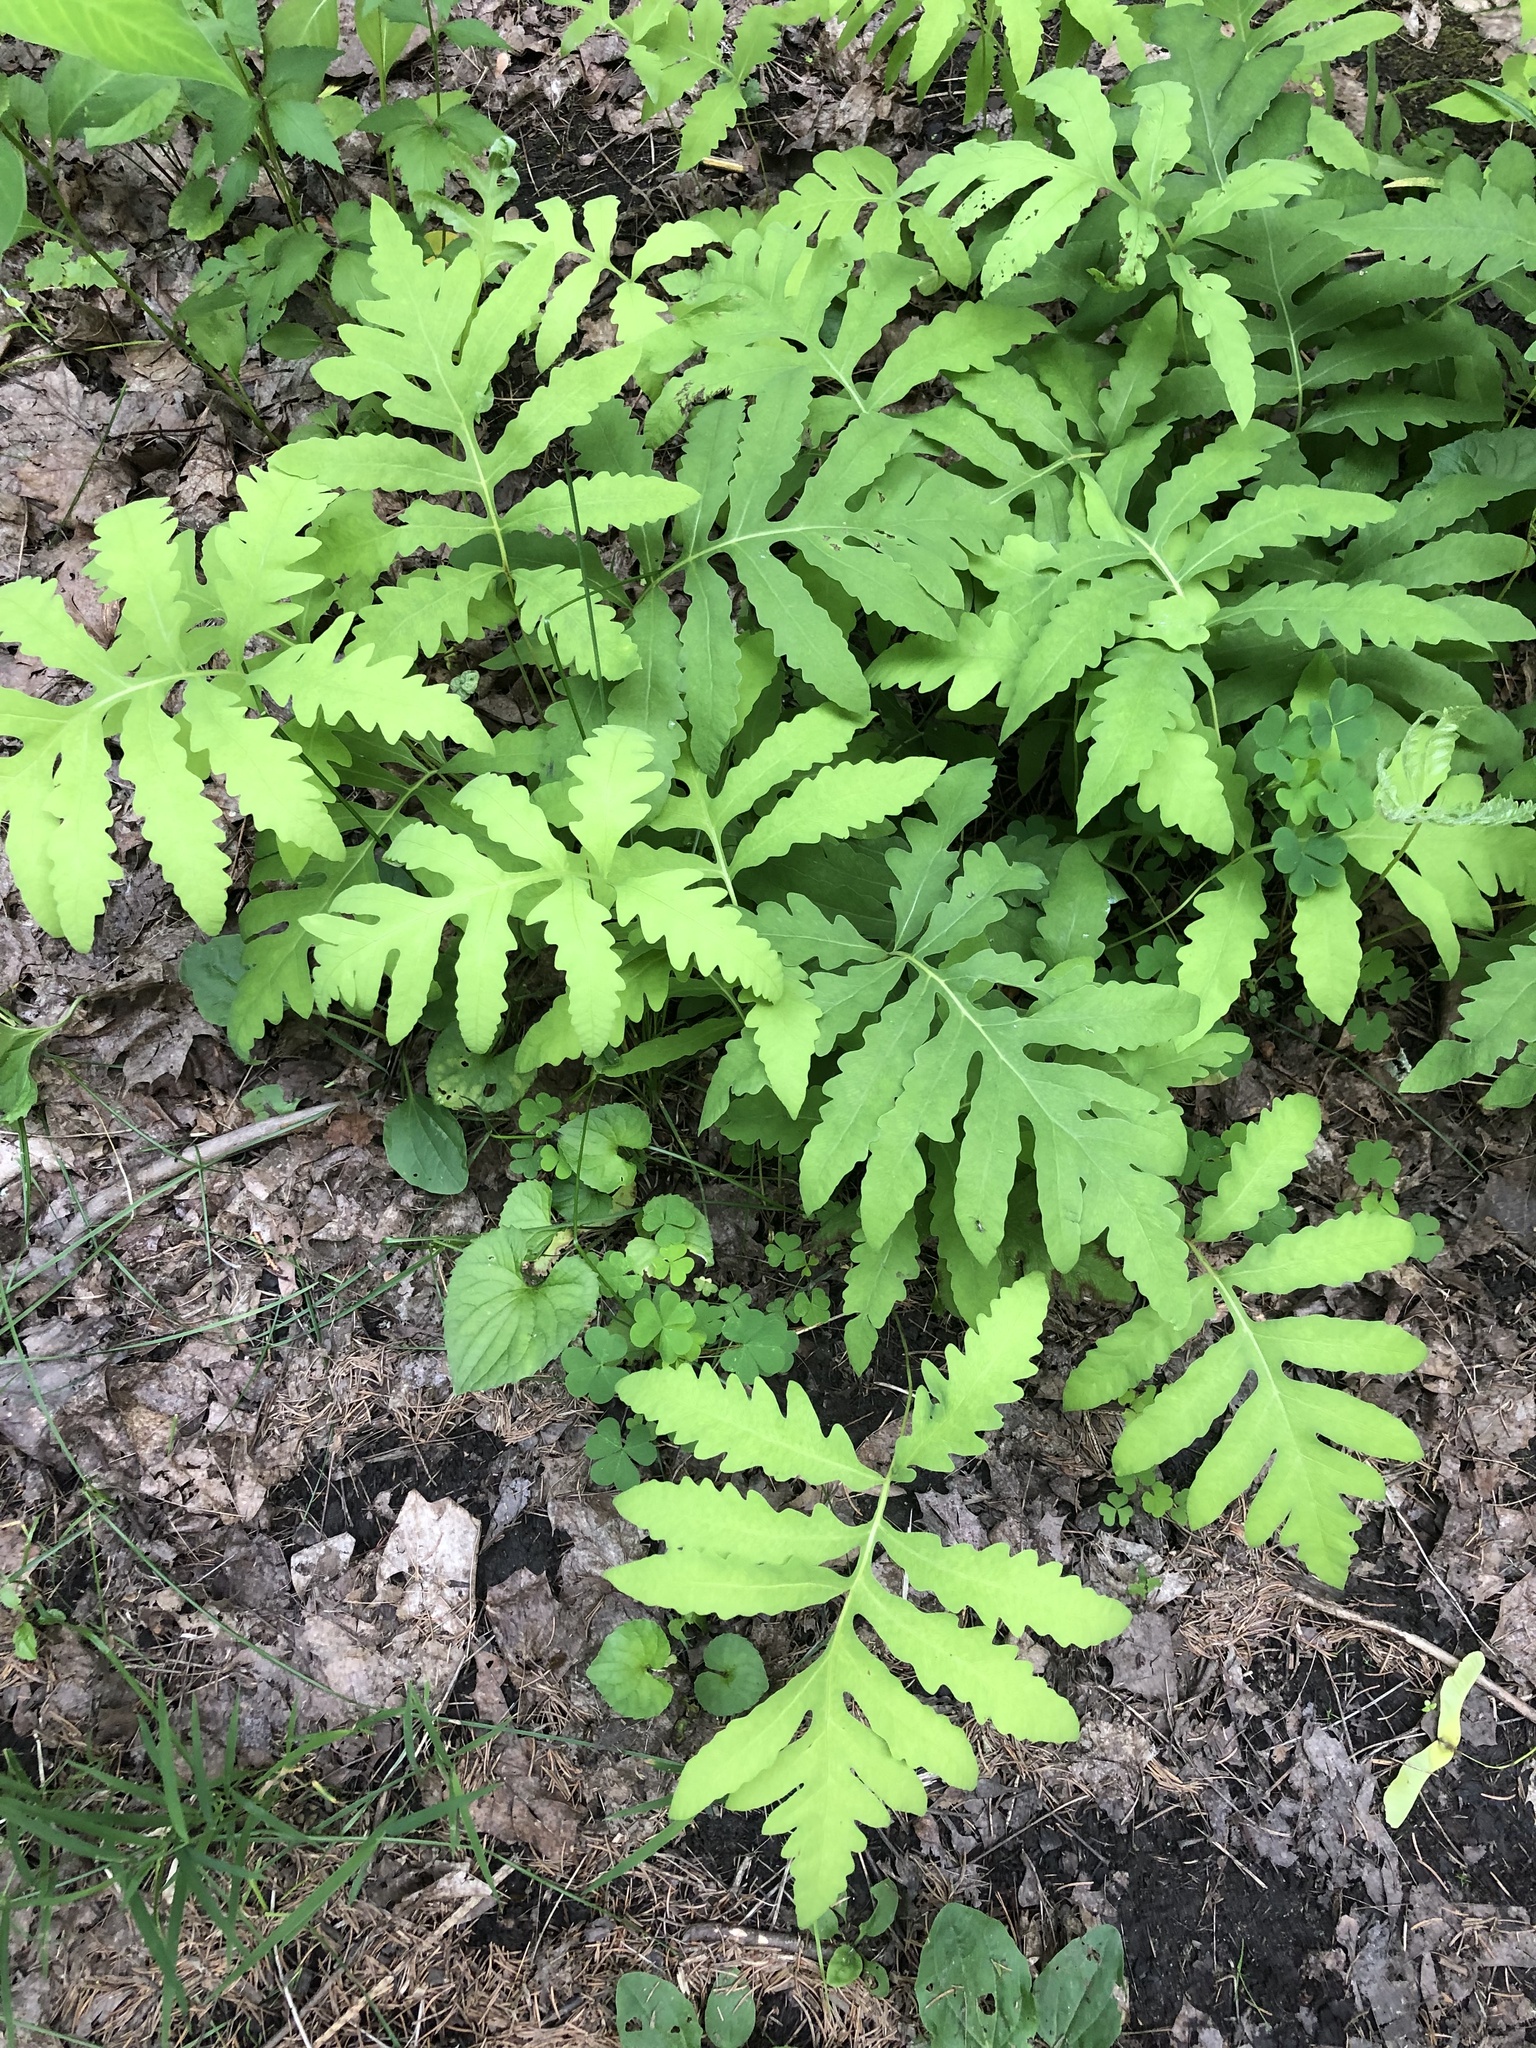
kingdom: Plantae
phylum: Tracheophyta
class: Polypodiopsida
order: Polypodiales
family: Onocleaceae
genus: Onoclea
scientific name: Onoclea sensibilis
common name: Sensitive fern
